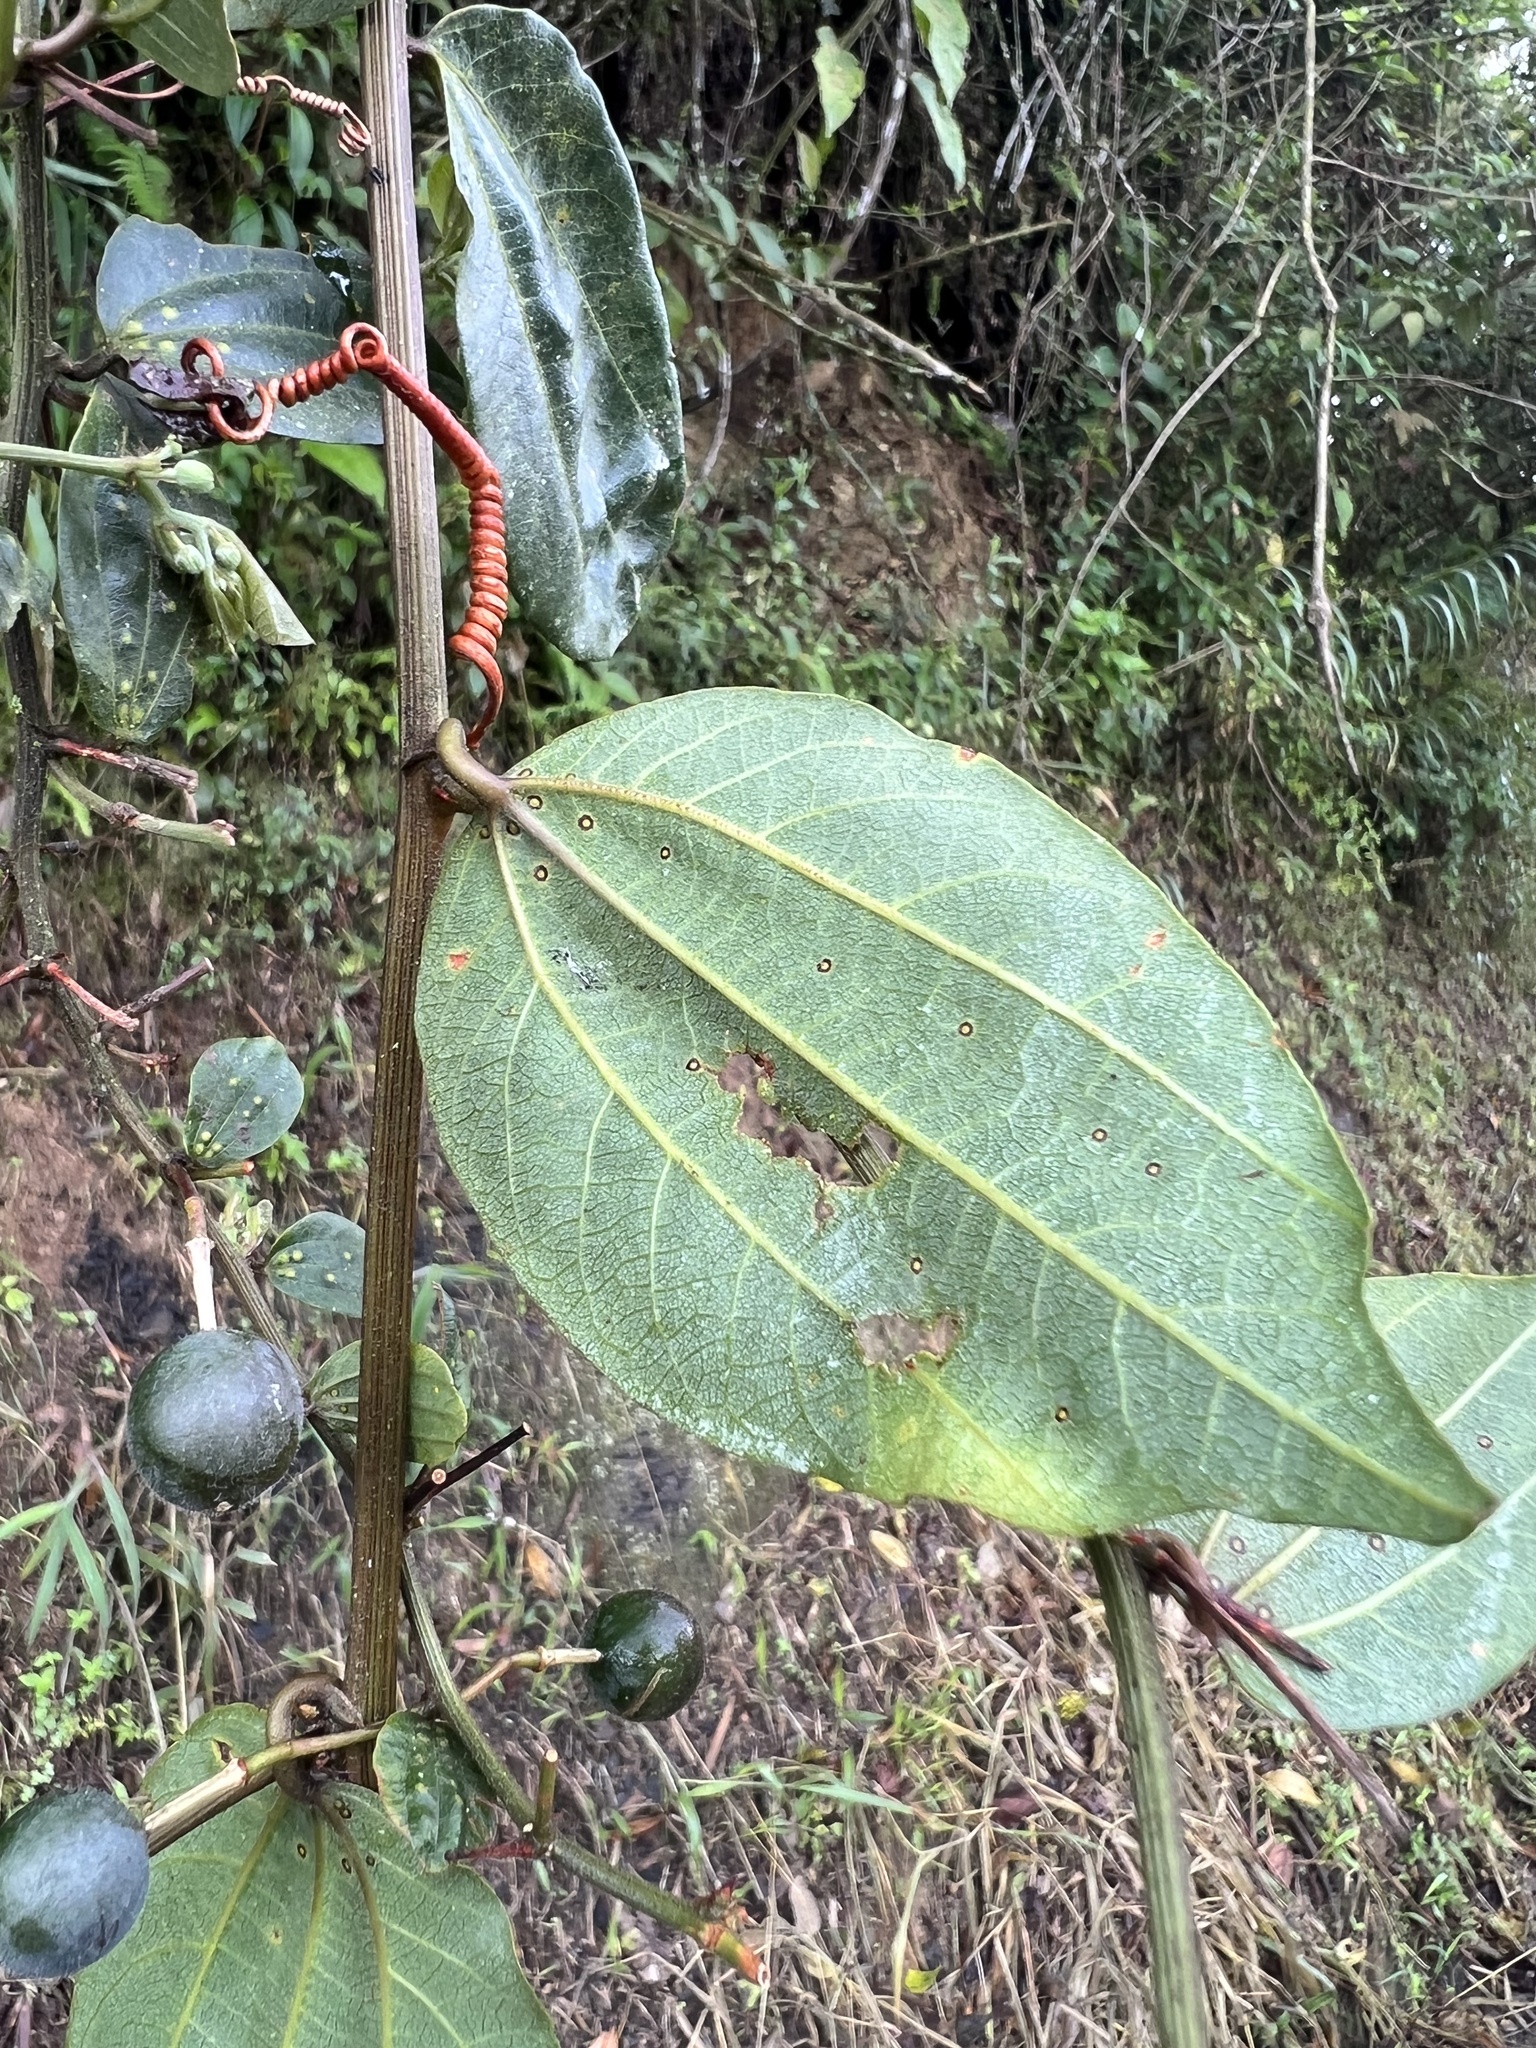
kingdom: Plantae
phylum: Tracheophyta
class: Magnoliopsida
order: Malpighiales
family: Passifloraceae
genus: Passiflora
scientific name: Passiflora cuspidifolia
